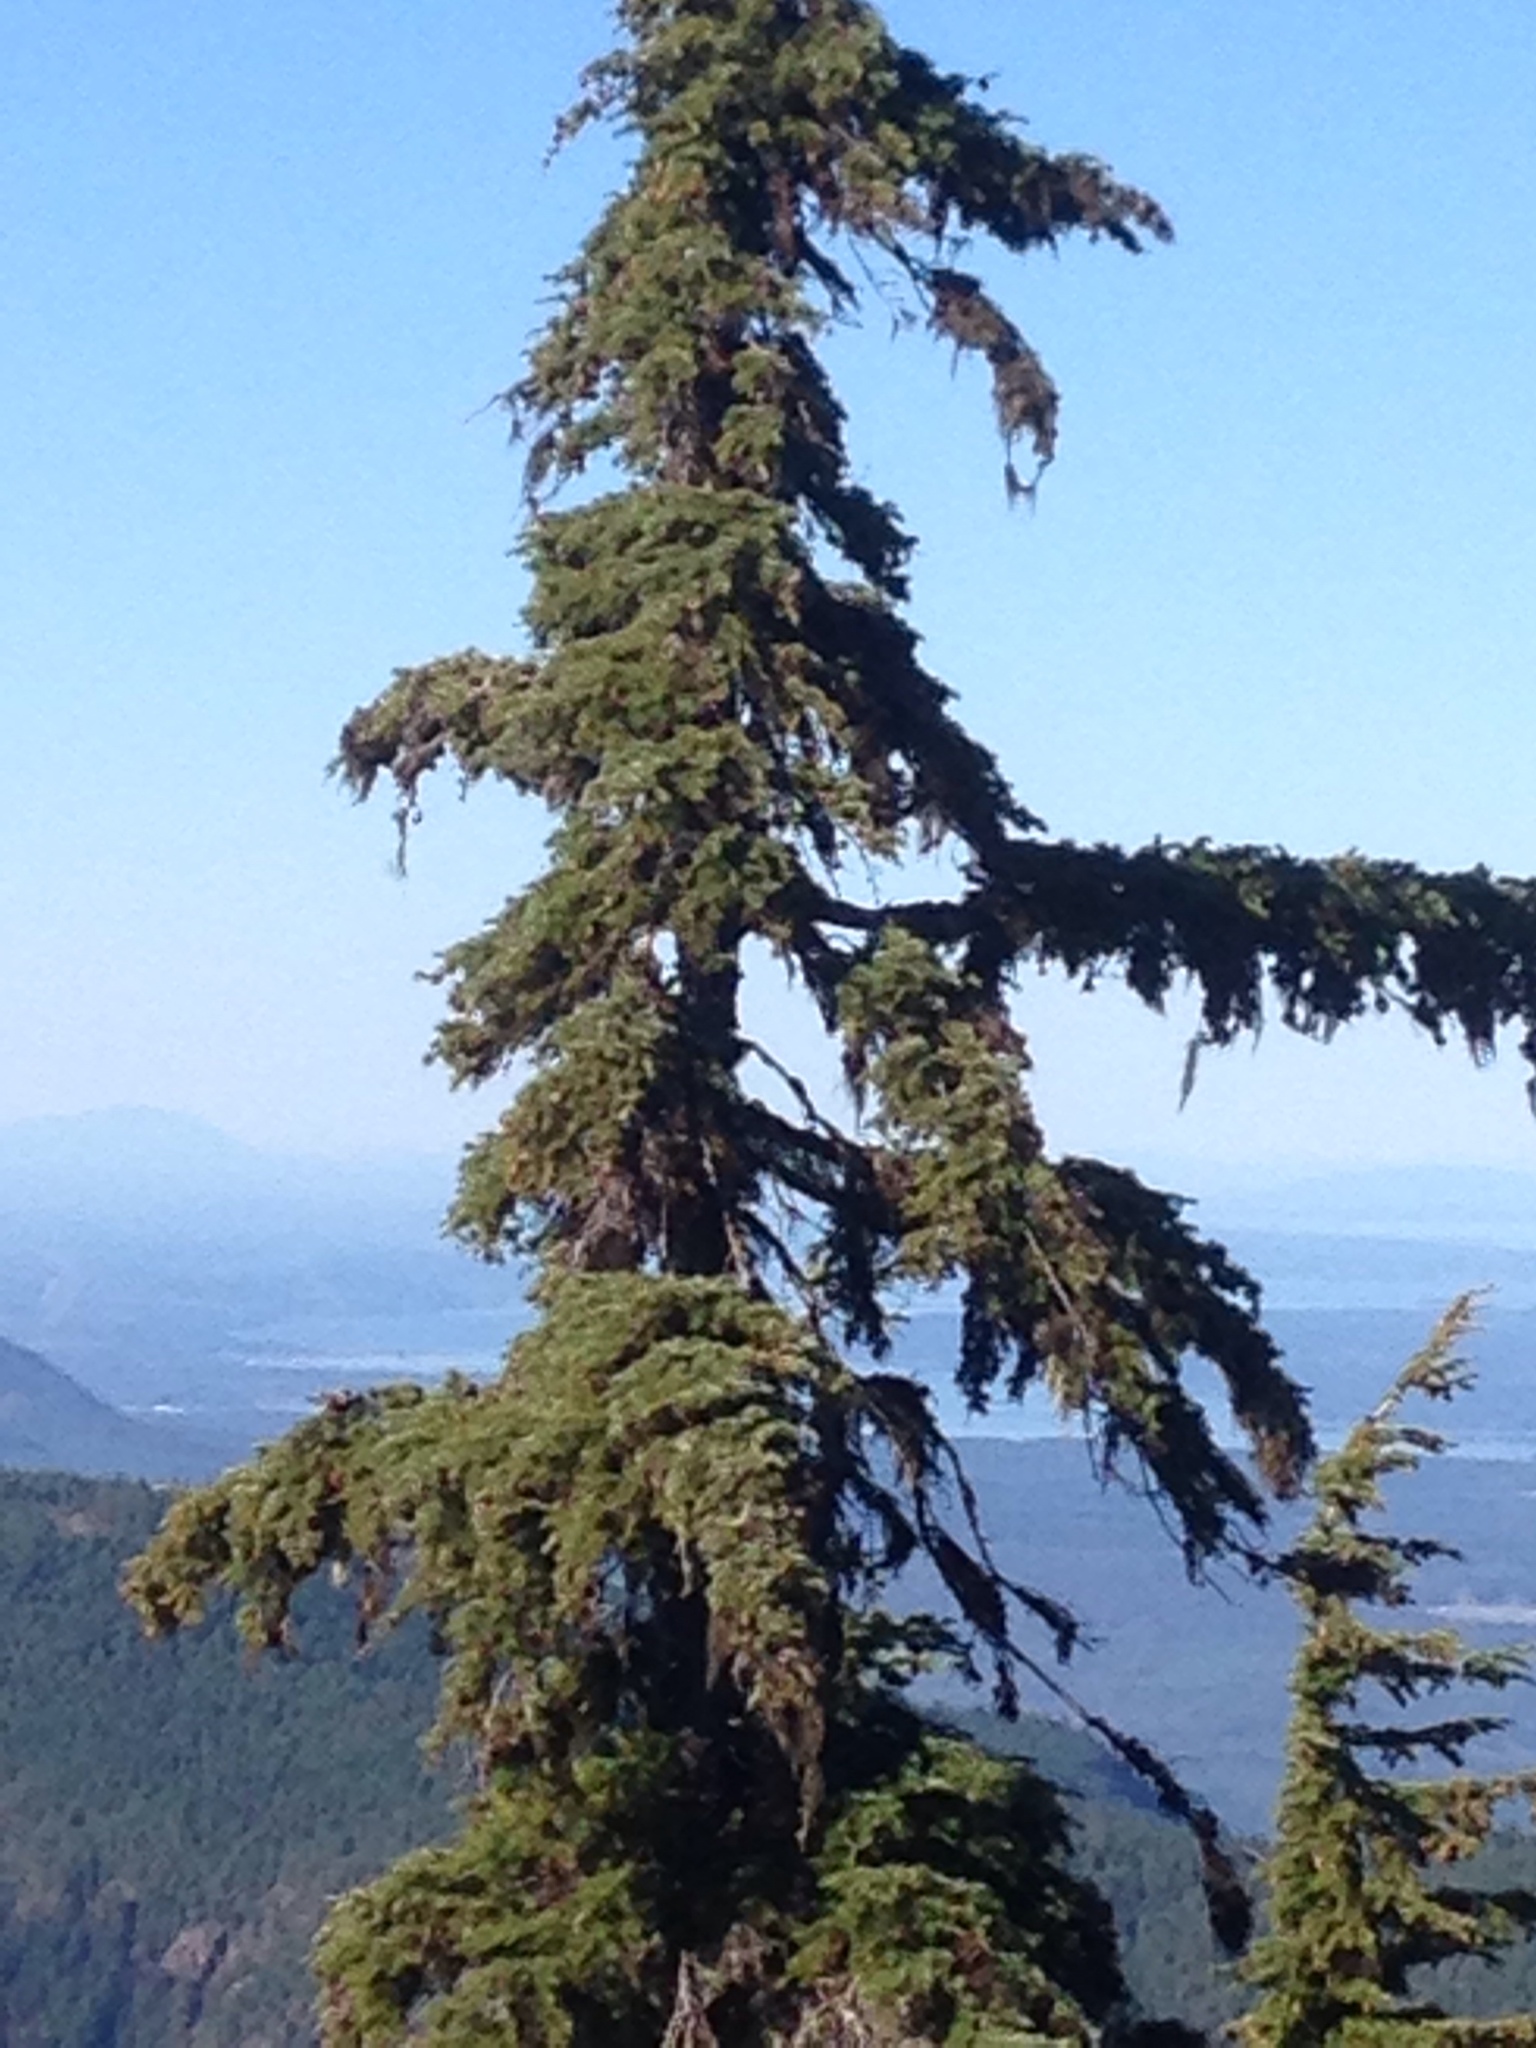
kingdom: Plantae
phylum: Tracheophyta
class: Pinopsida
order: Pinales
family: Pinaceae
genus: Tsuga
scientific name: Tsuga mertensiana
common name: Mountain hemlock
